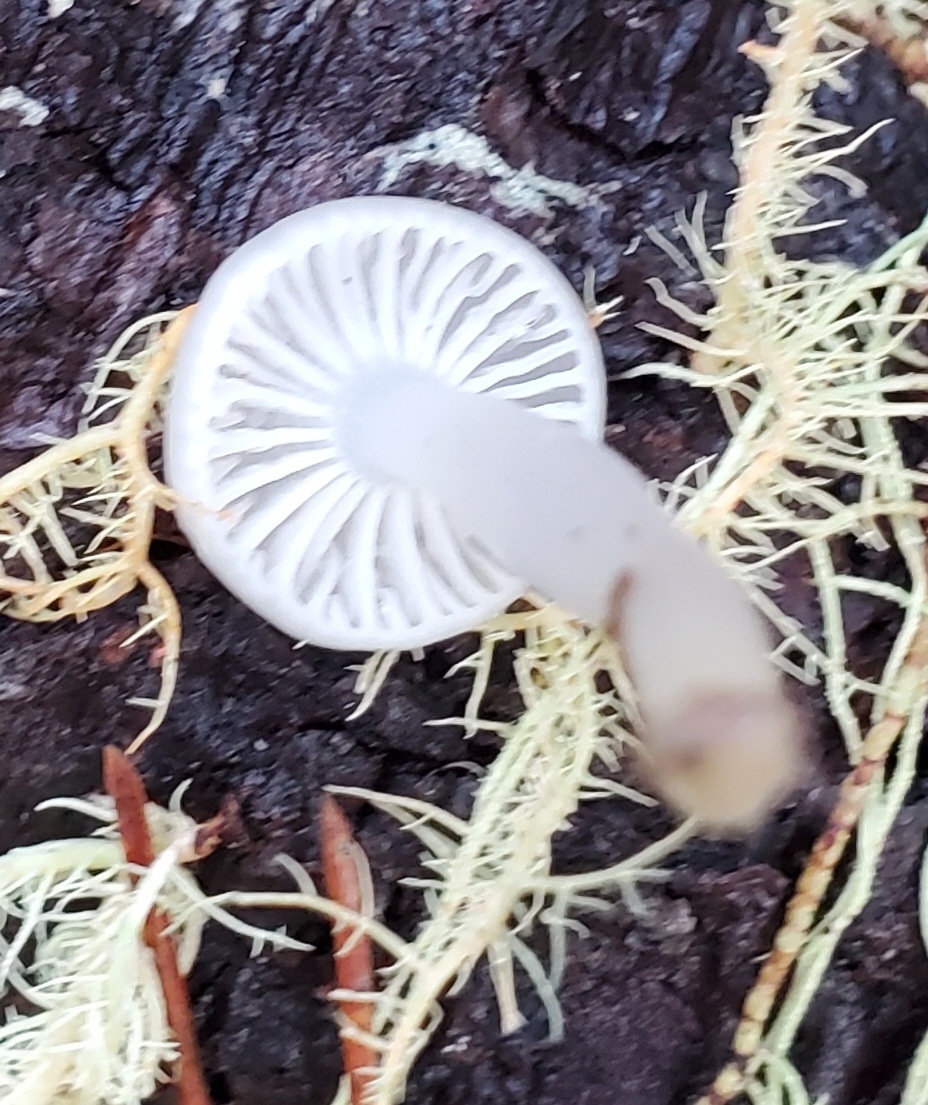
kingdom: Fungi
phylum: Basidiomycota
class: Agaricomycetes
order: Agaricales
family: Marasmiaceae
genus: Marasmius
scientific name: Marasmius calhouniae
